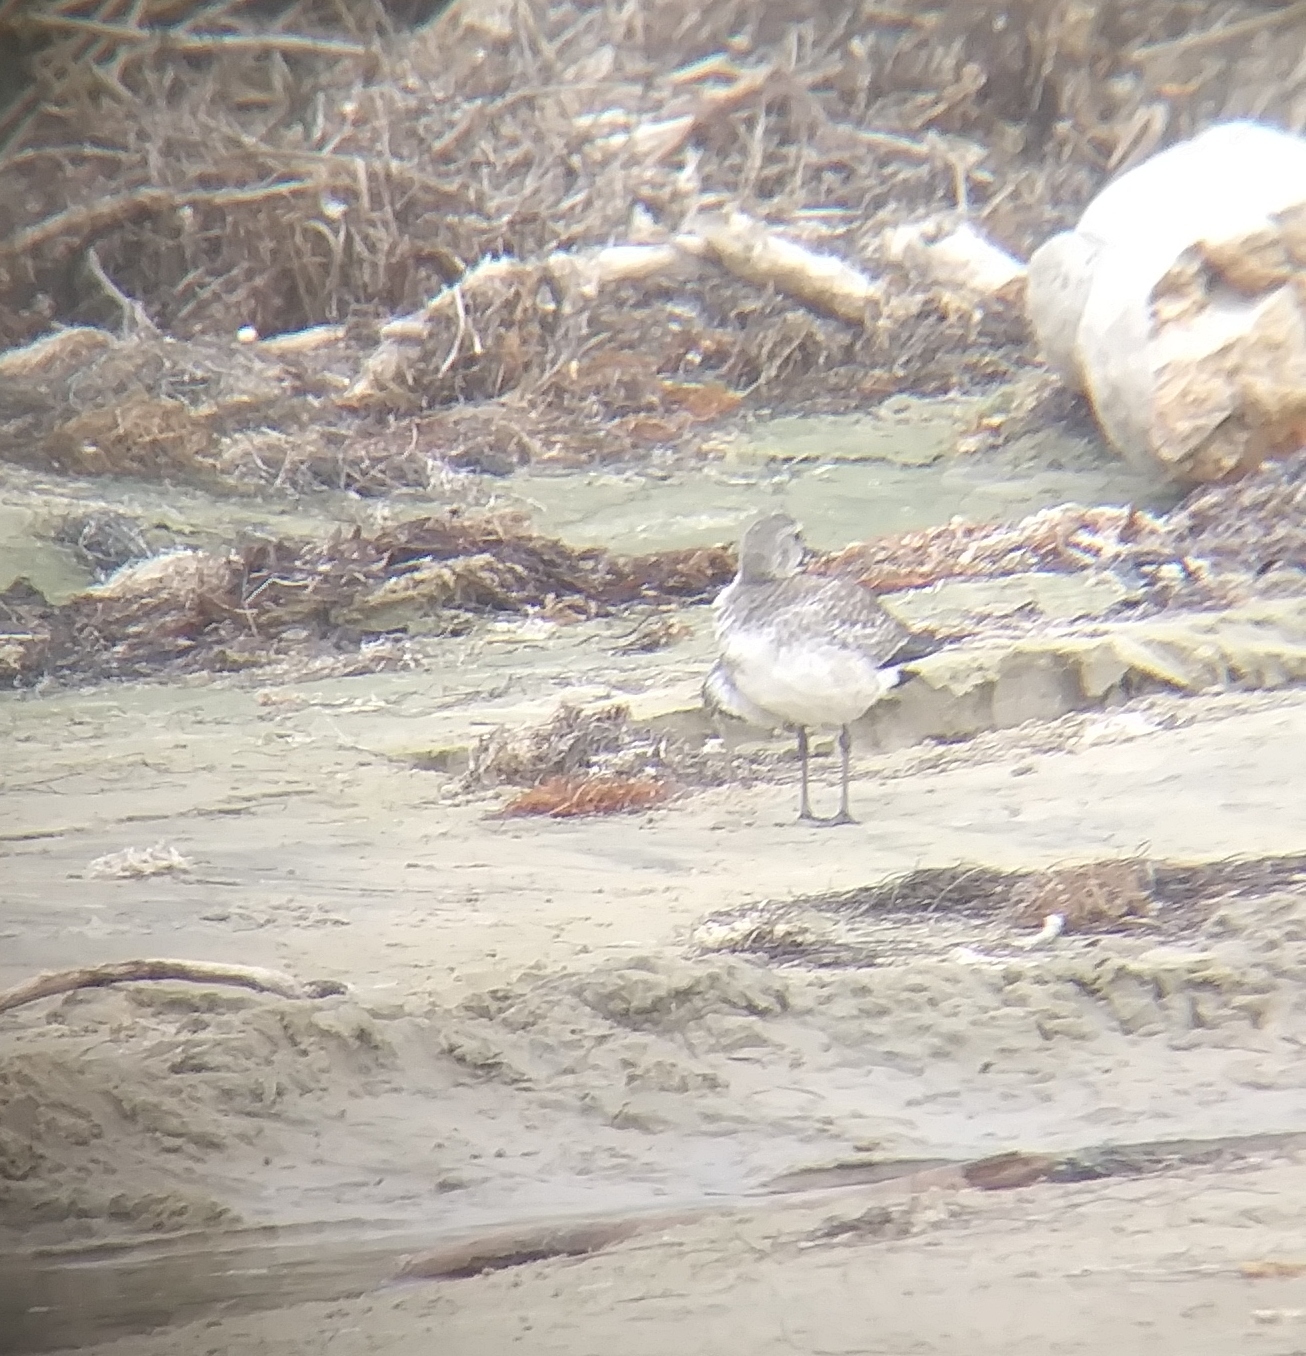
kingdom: Animalia
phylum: Chordata
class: Aves
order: Charadriiformes
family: Charadriidae
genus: Pluvialis
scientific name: Pluvialis squatarola
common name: Grey plover
